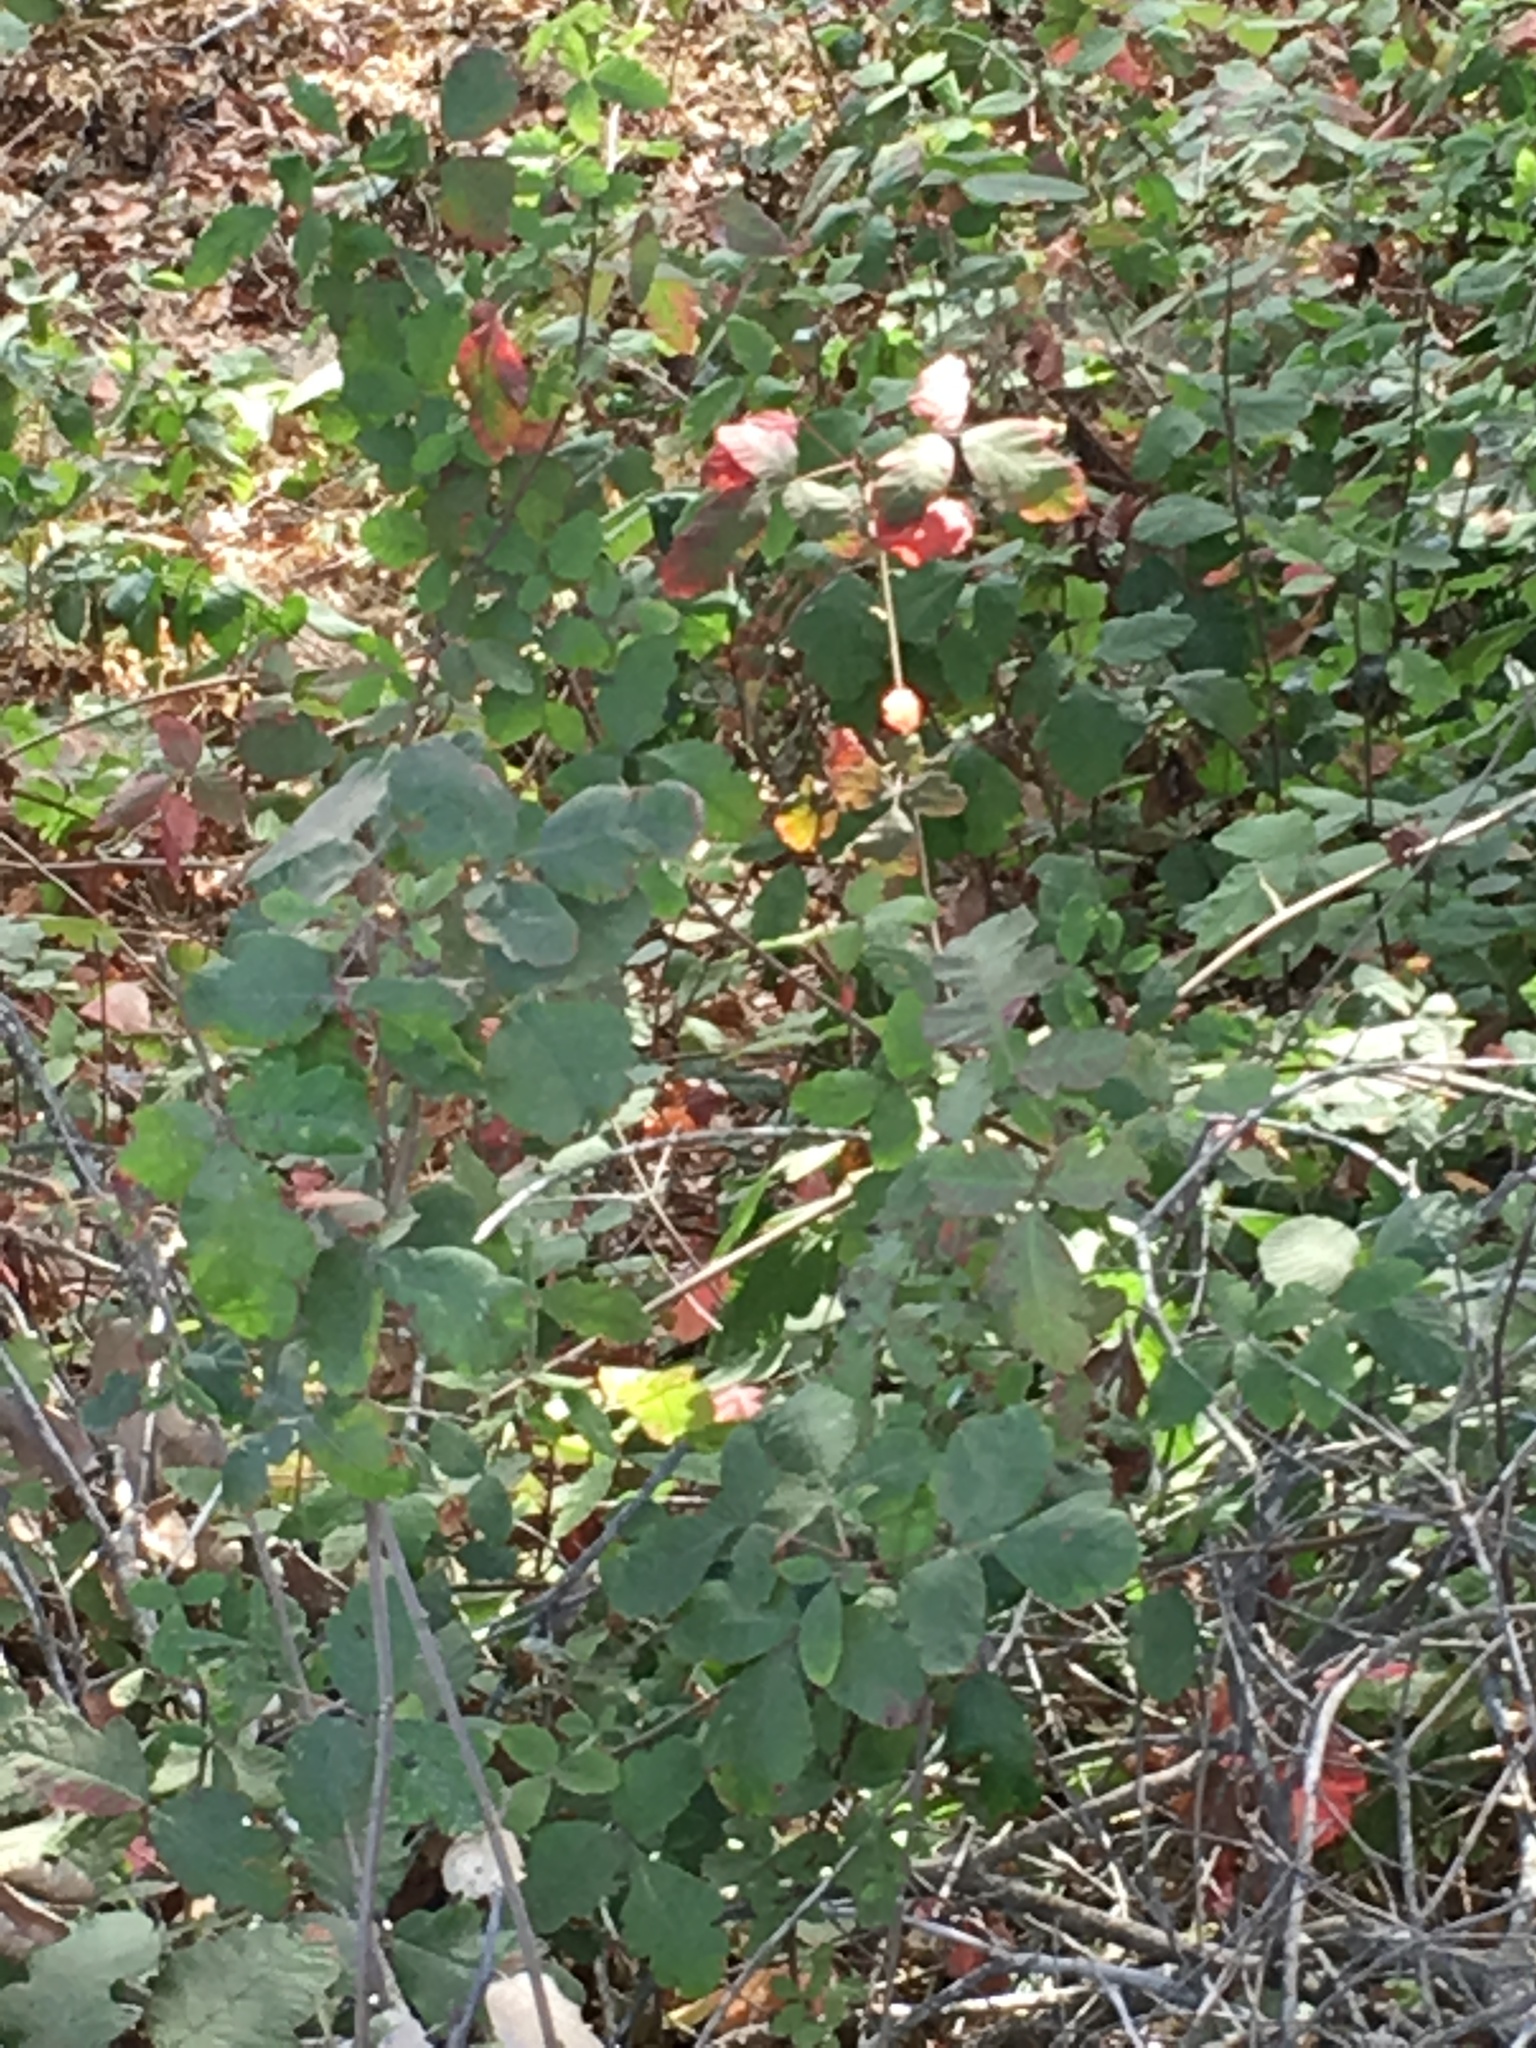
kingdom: Plantae
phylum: Tracheophyta
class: Magnoliopsida
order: Sapindales
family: Anacardiaceae
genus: Toxicodendron
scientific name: Toxicodendron diversilobum
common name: Pacific poison-oak
